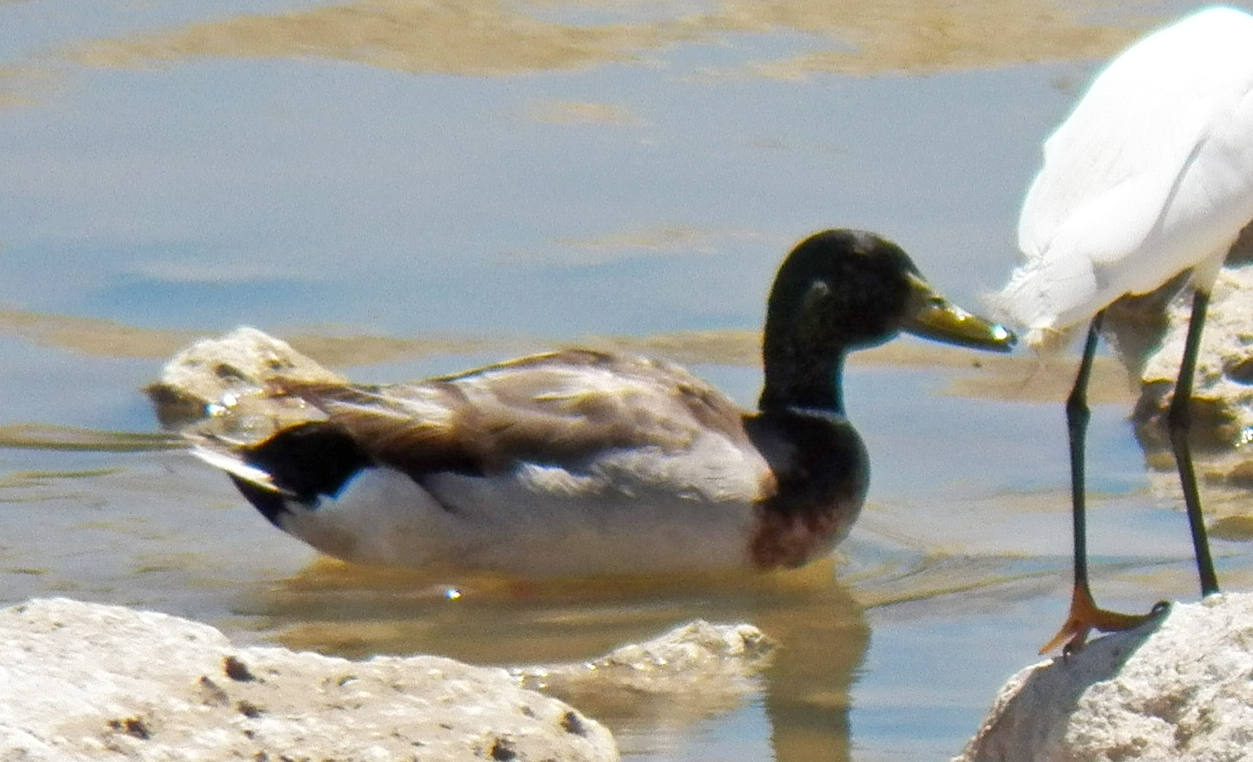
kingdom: Animalia
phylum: Chordata
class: Aves
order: Anseriformes
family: Anatidae
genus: Anas
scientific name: Anas platyrhynchos
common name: Mallard
